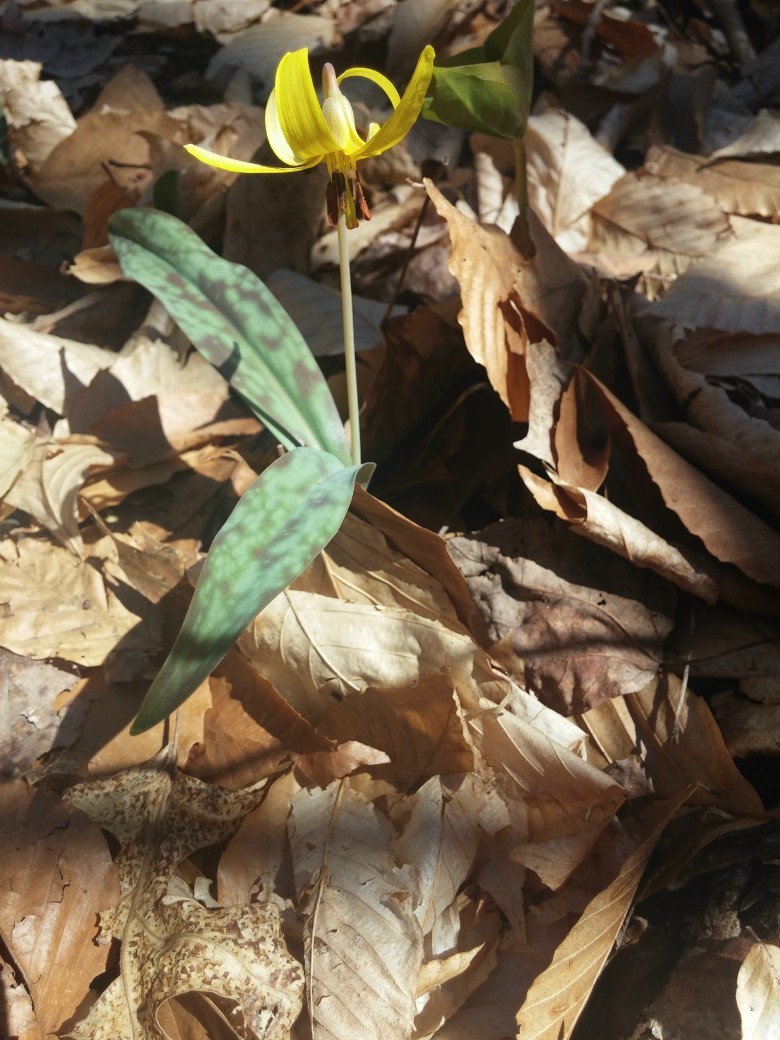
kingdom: Plantae
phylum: Tracheophyta
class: Liliopsida
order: Liliales
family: Liliaceae
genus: Erythronium
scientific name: Erythronium americanum
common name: Yellow adder's-tongue
